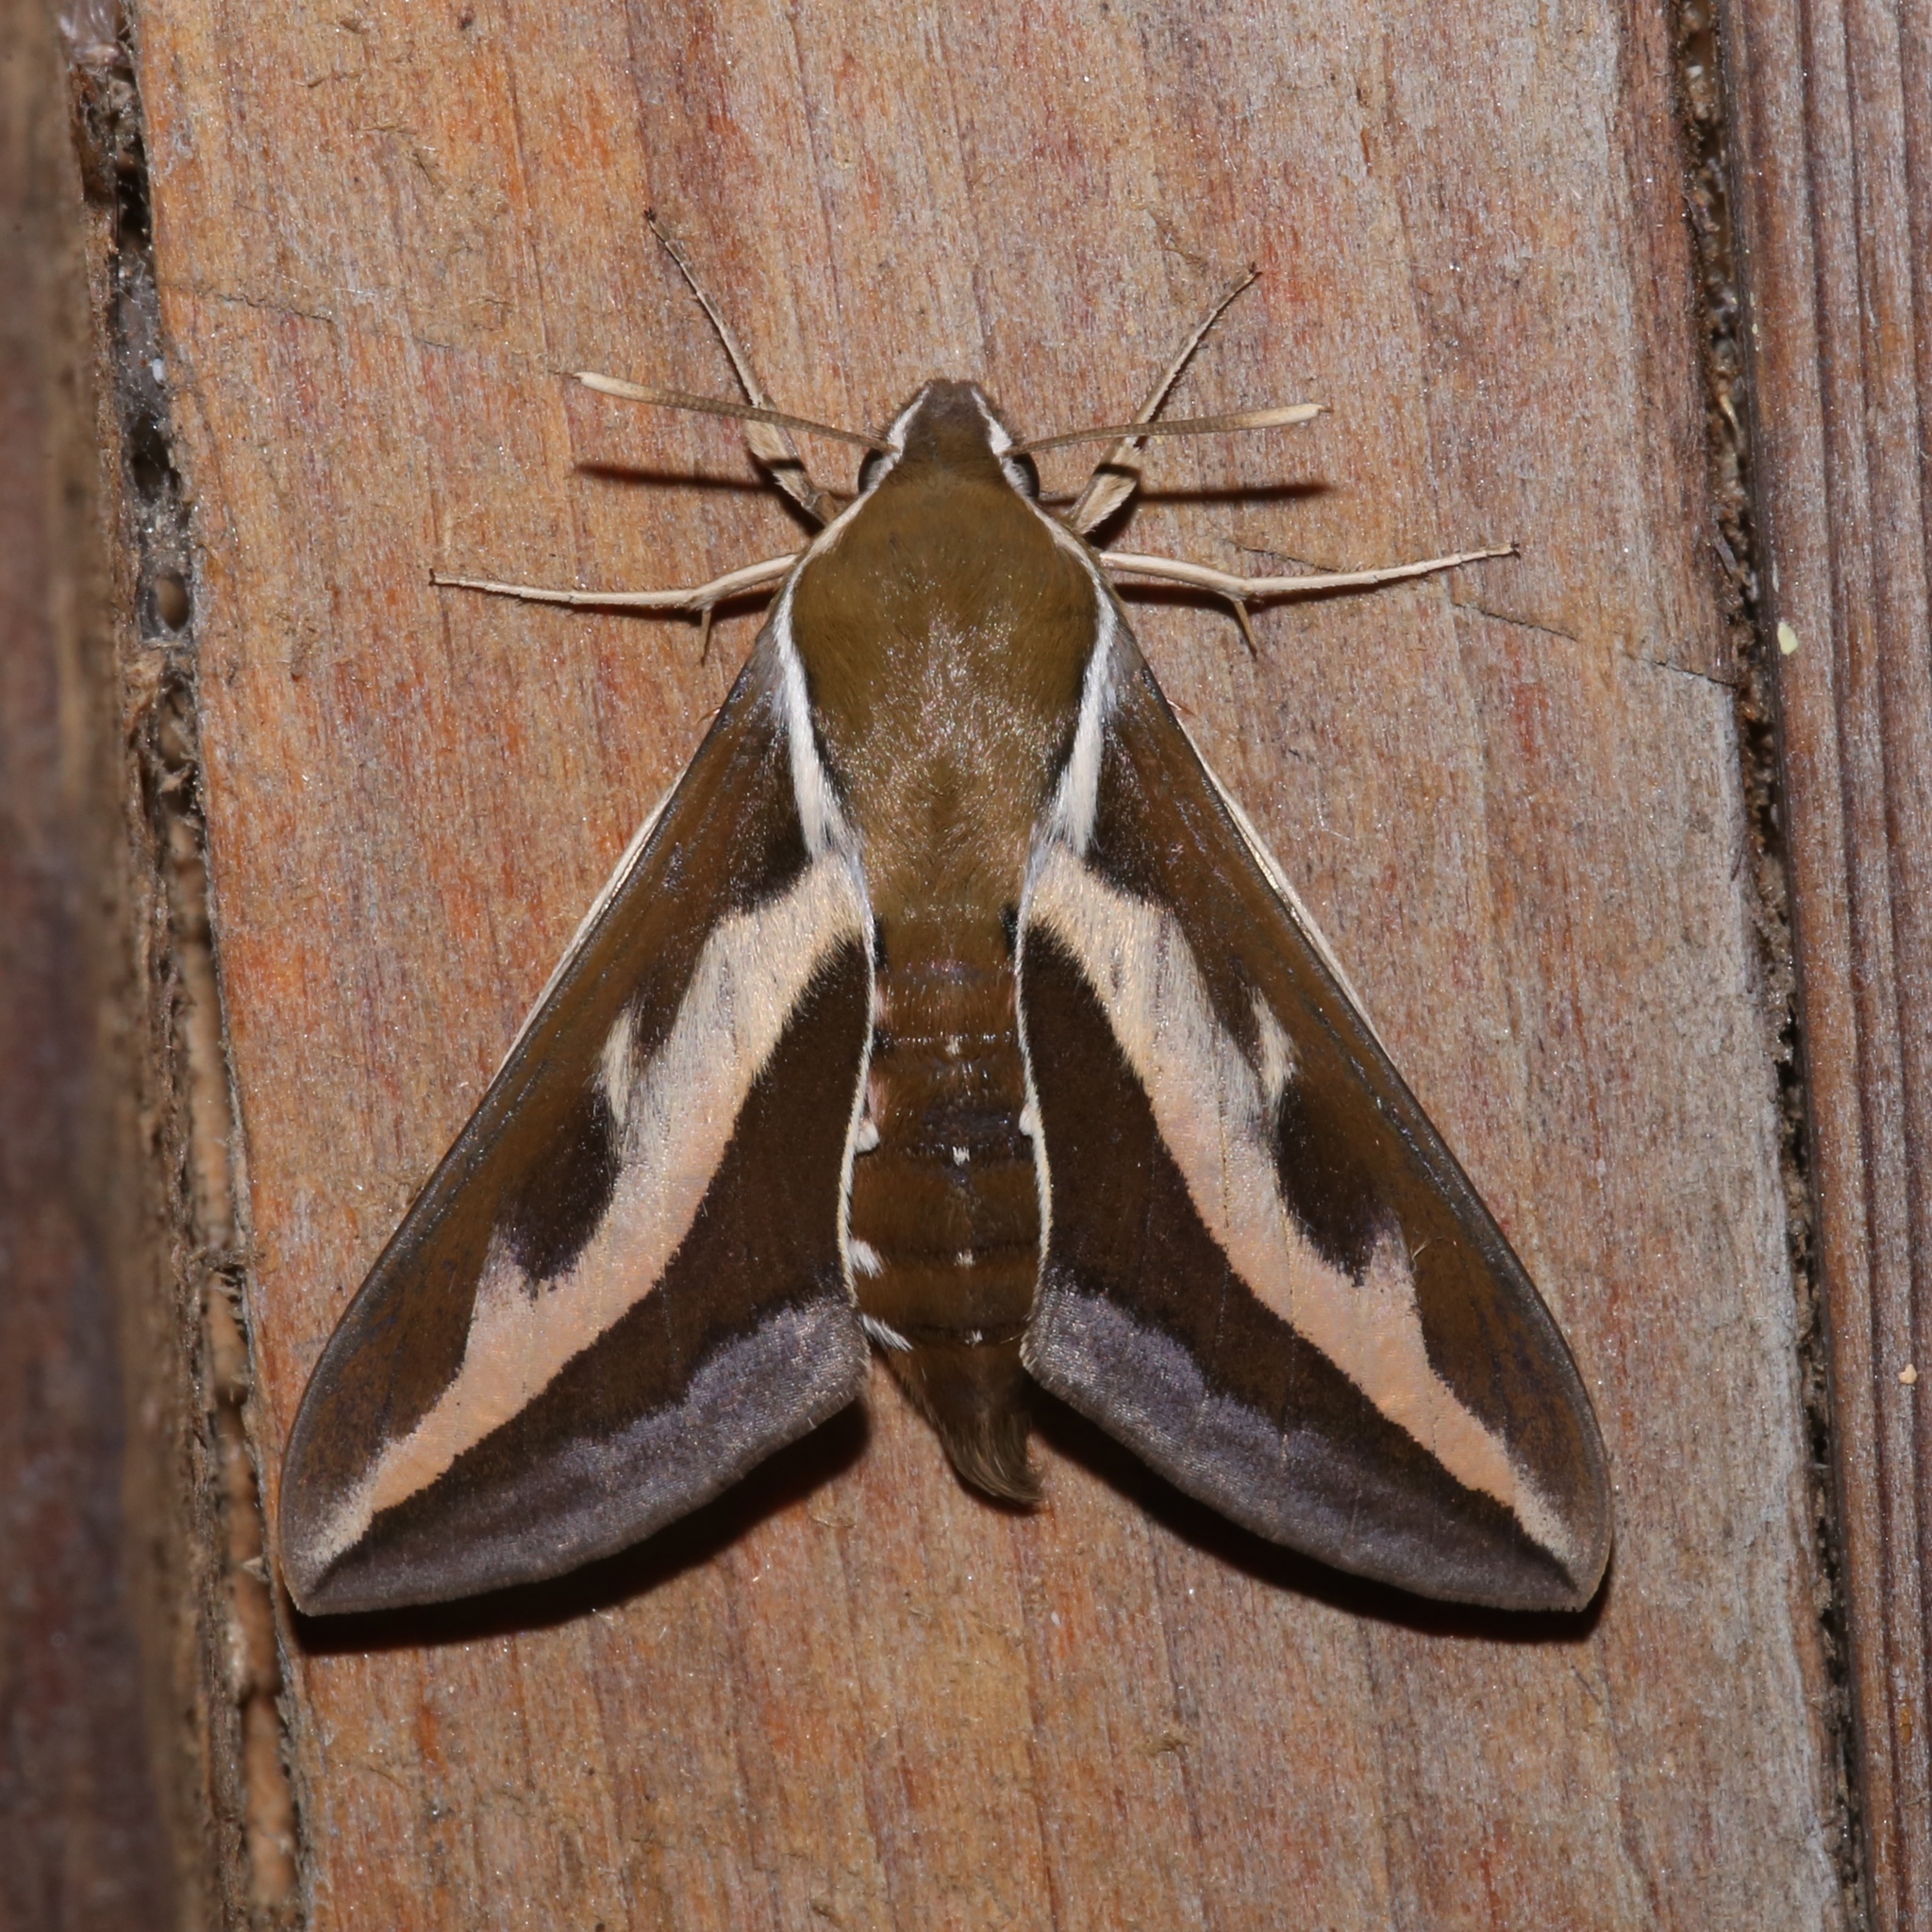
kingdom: Animalia
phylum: Arthropoda
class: Insecta
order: Lepidoptera
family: Sphingidae
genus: Hyles
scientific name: Hyles gallii
